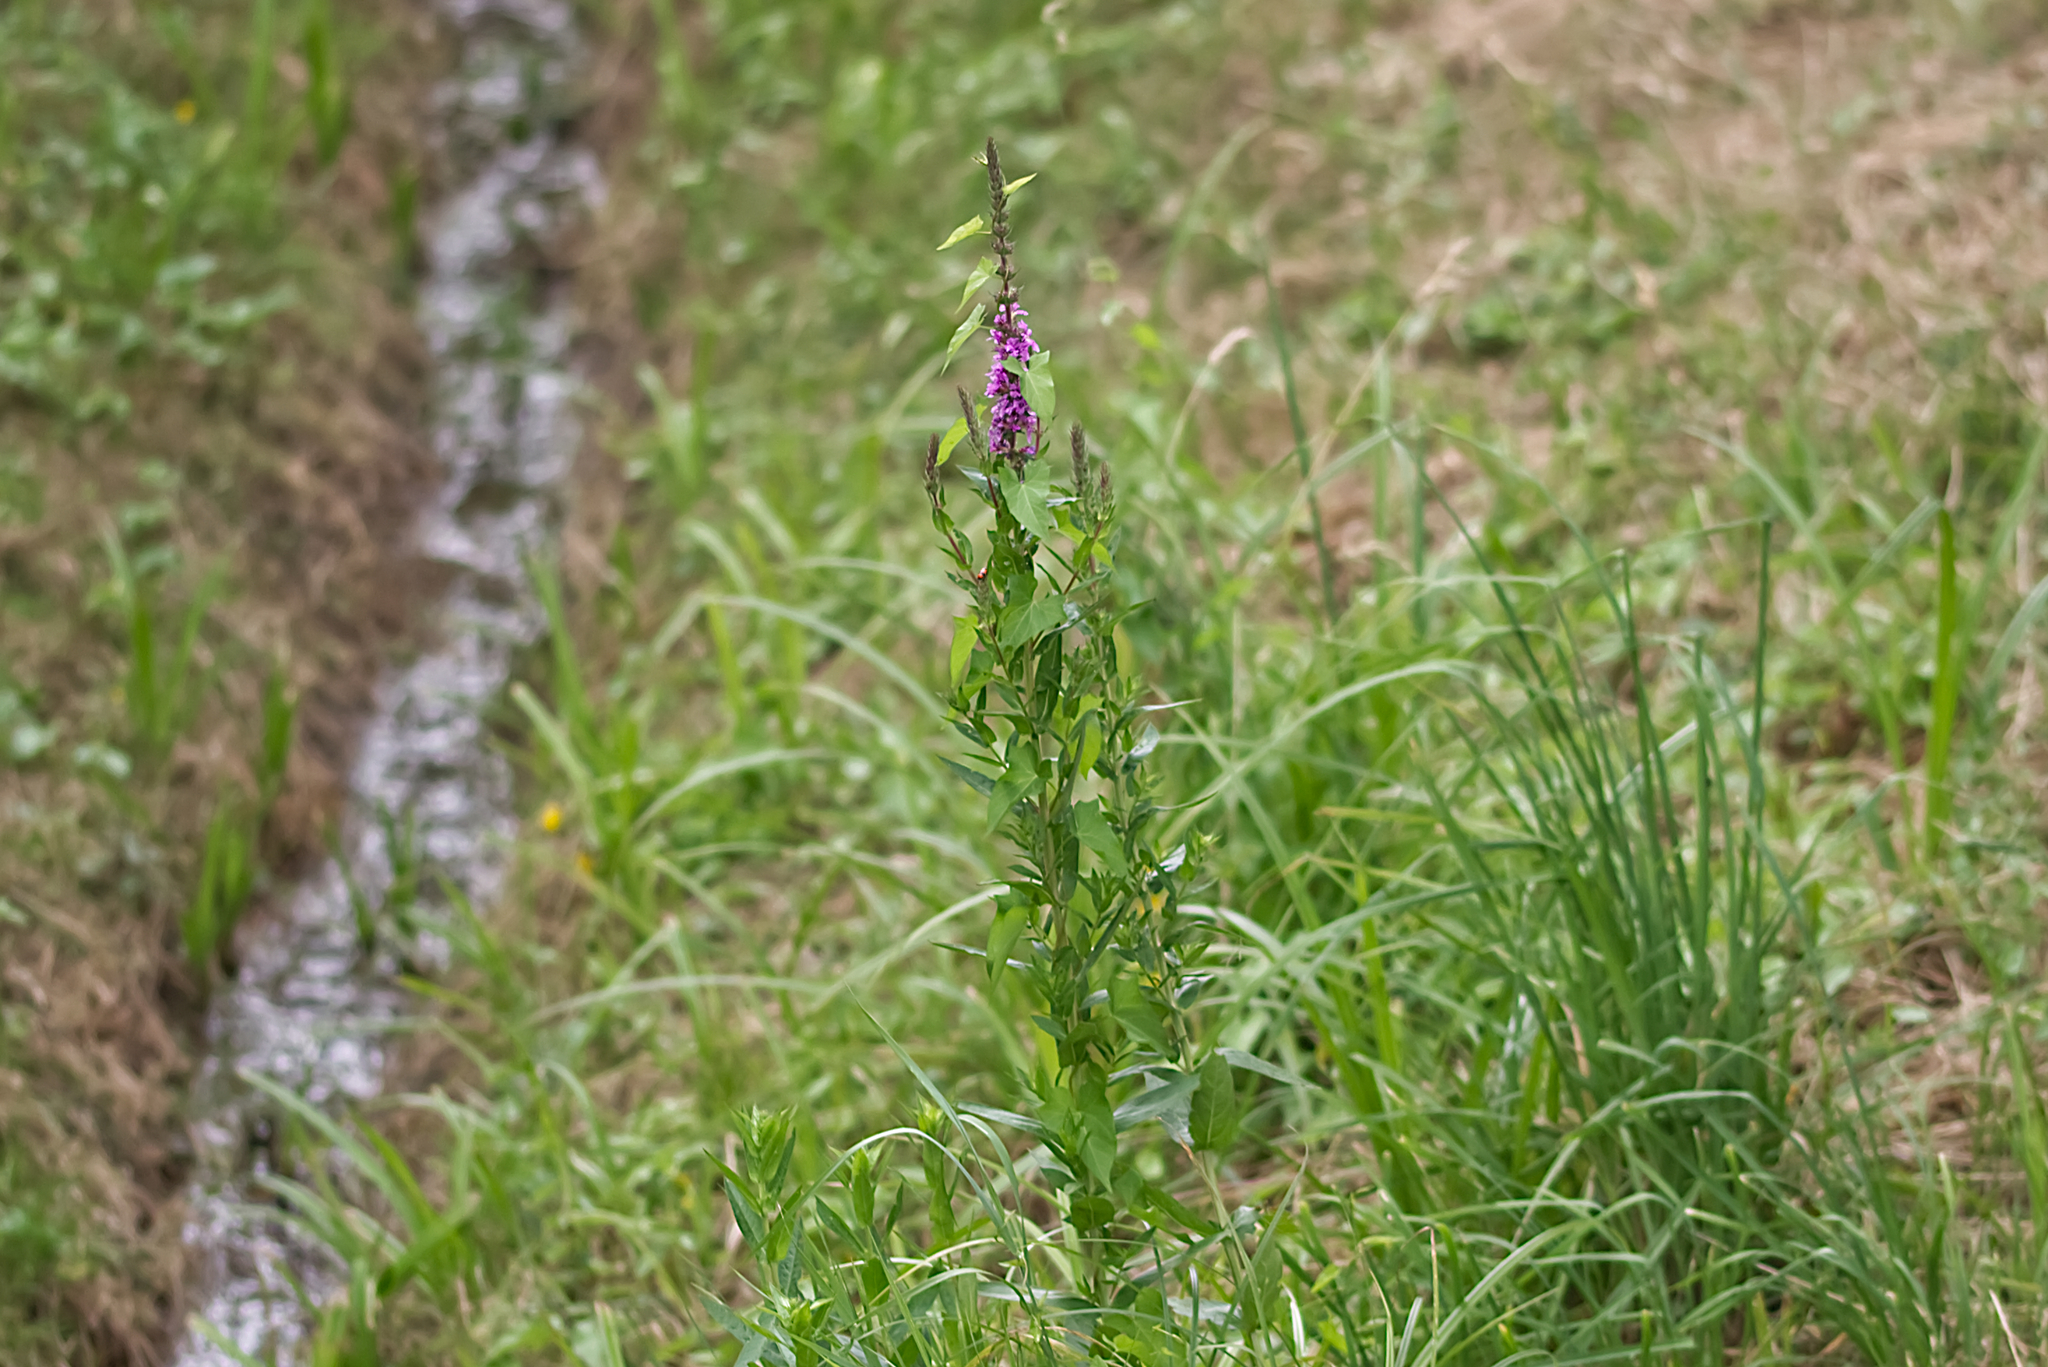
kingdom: Plantae
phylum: Tracheophyta
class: Magnoliopsida
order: Myrtales
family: Lythraceae
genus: Lythrum
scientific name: Lythrum salicaria
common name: Purple loosestrife
